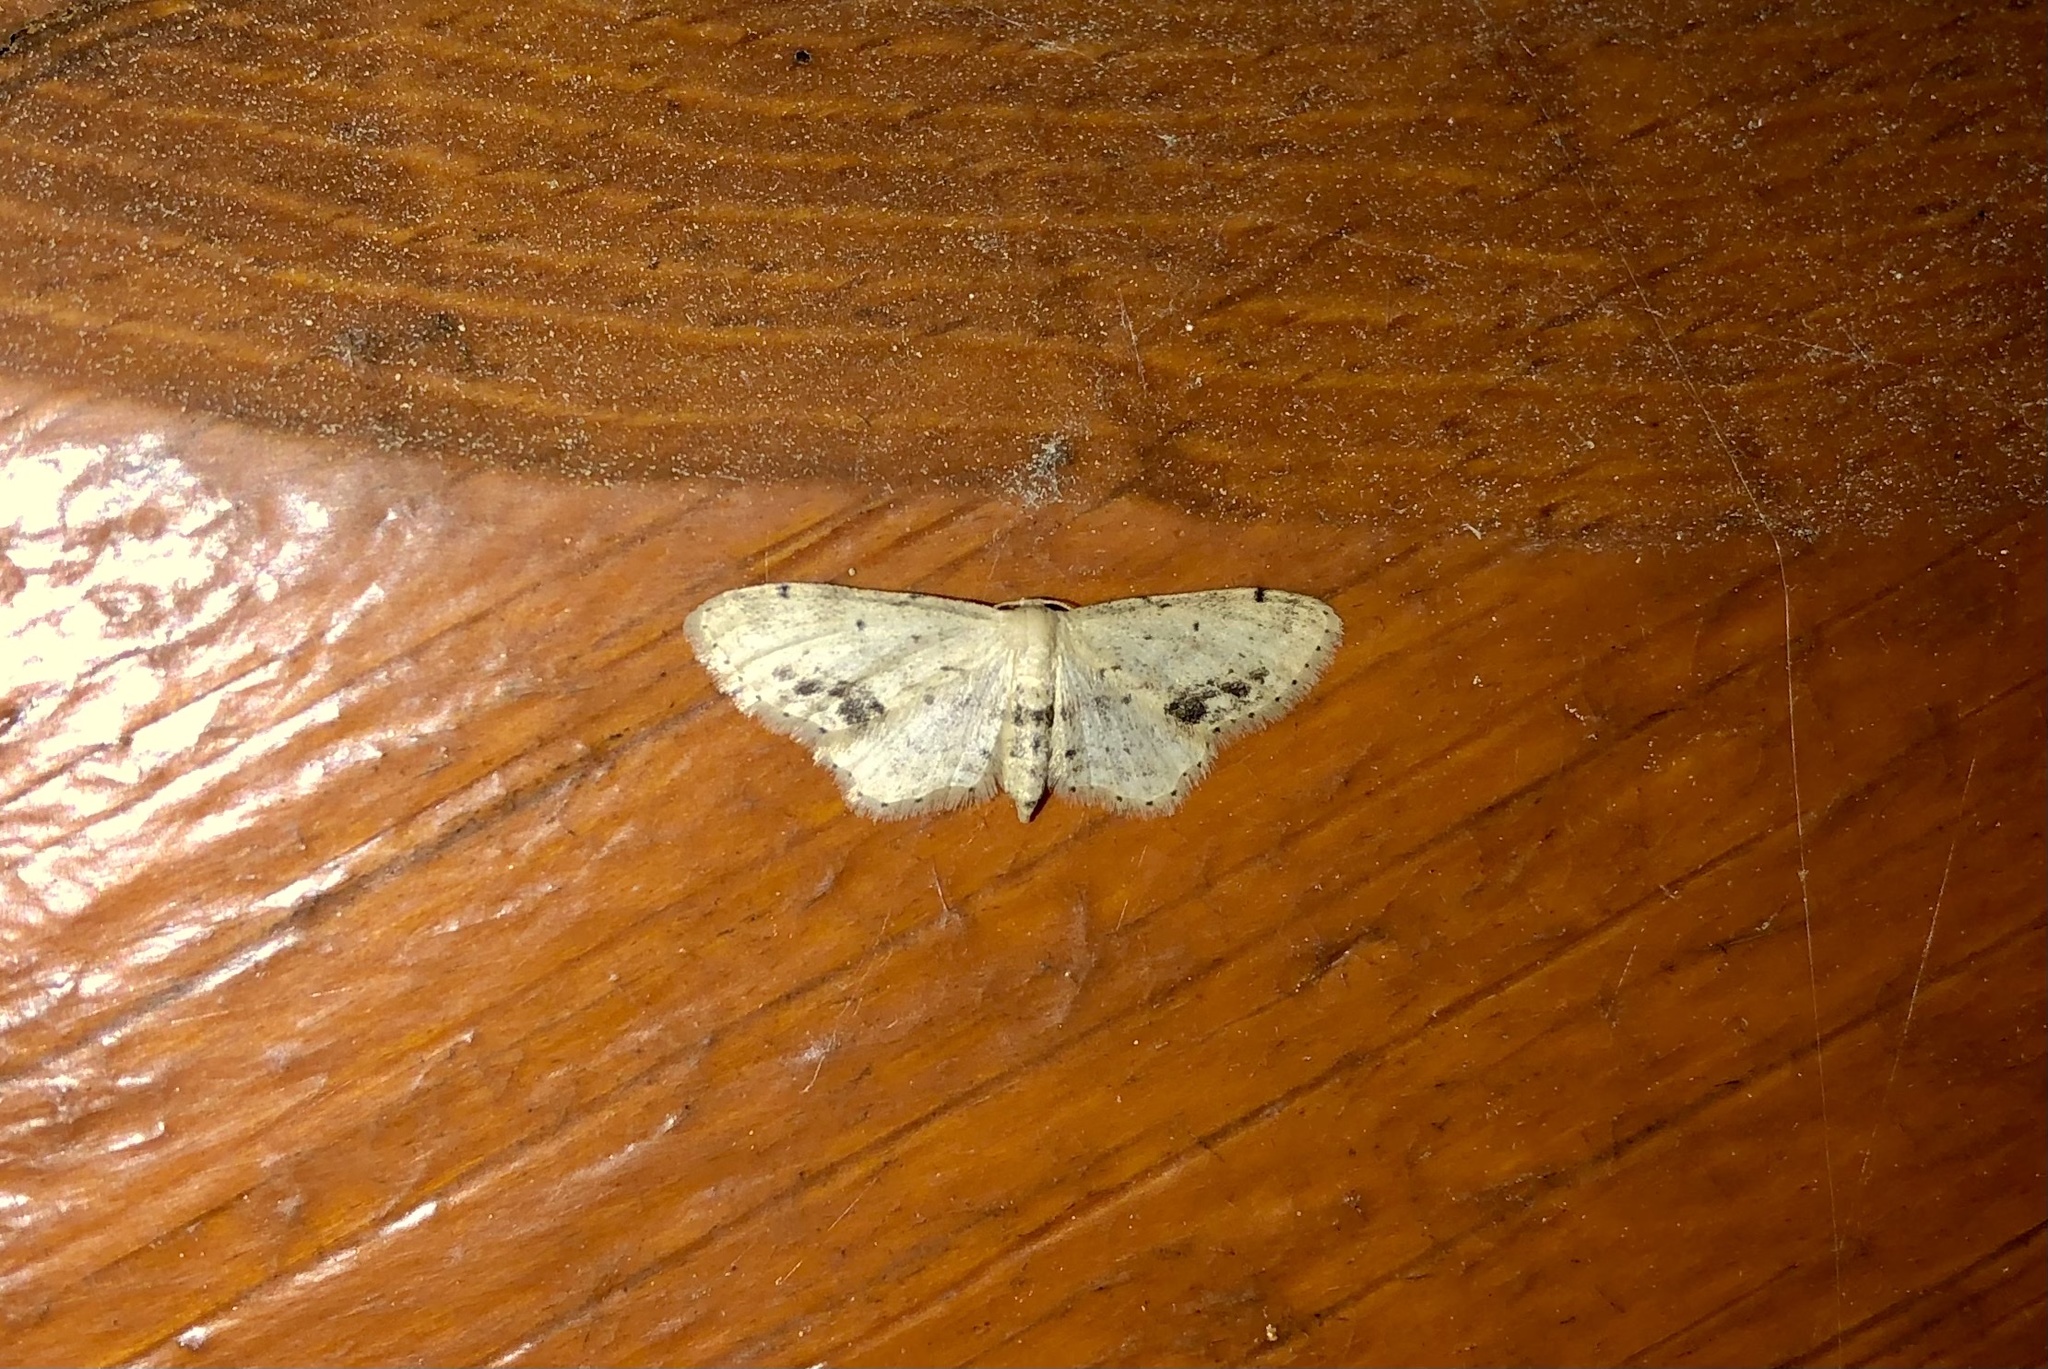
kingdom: Animalia
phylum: Arthropoda
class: Insecta
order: Lepidoptera
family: Geometridae
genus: Idaea
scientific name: Idaea dimidiata
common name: Single-dotted wave
